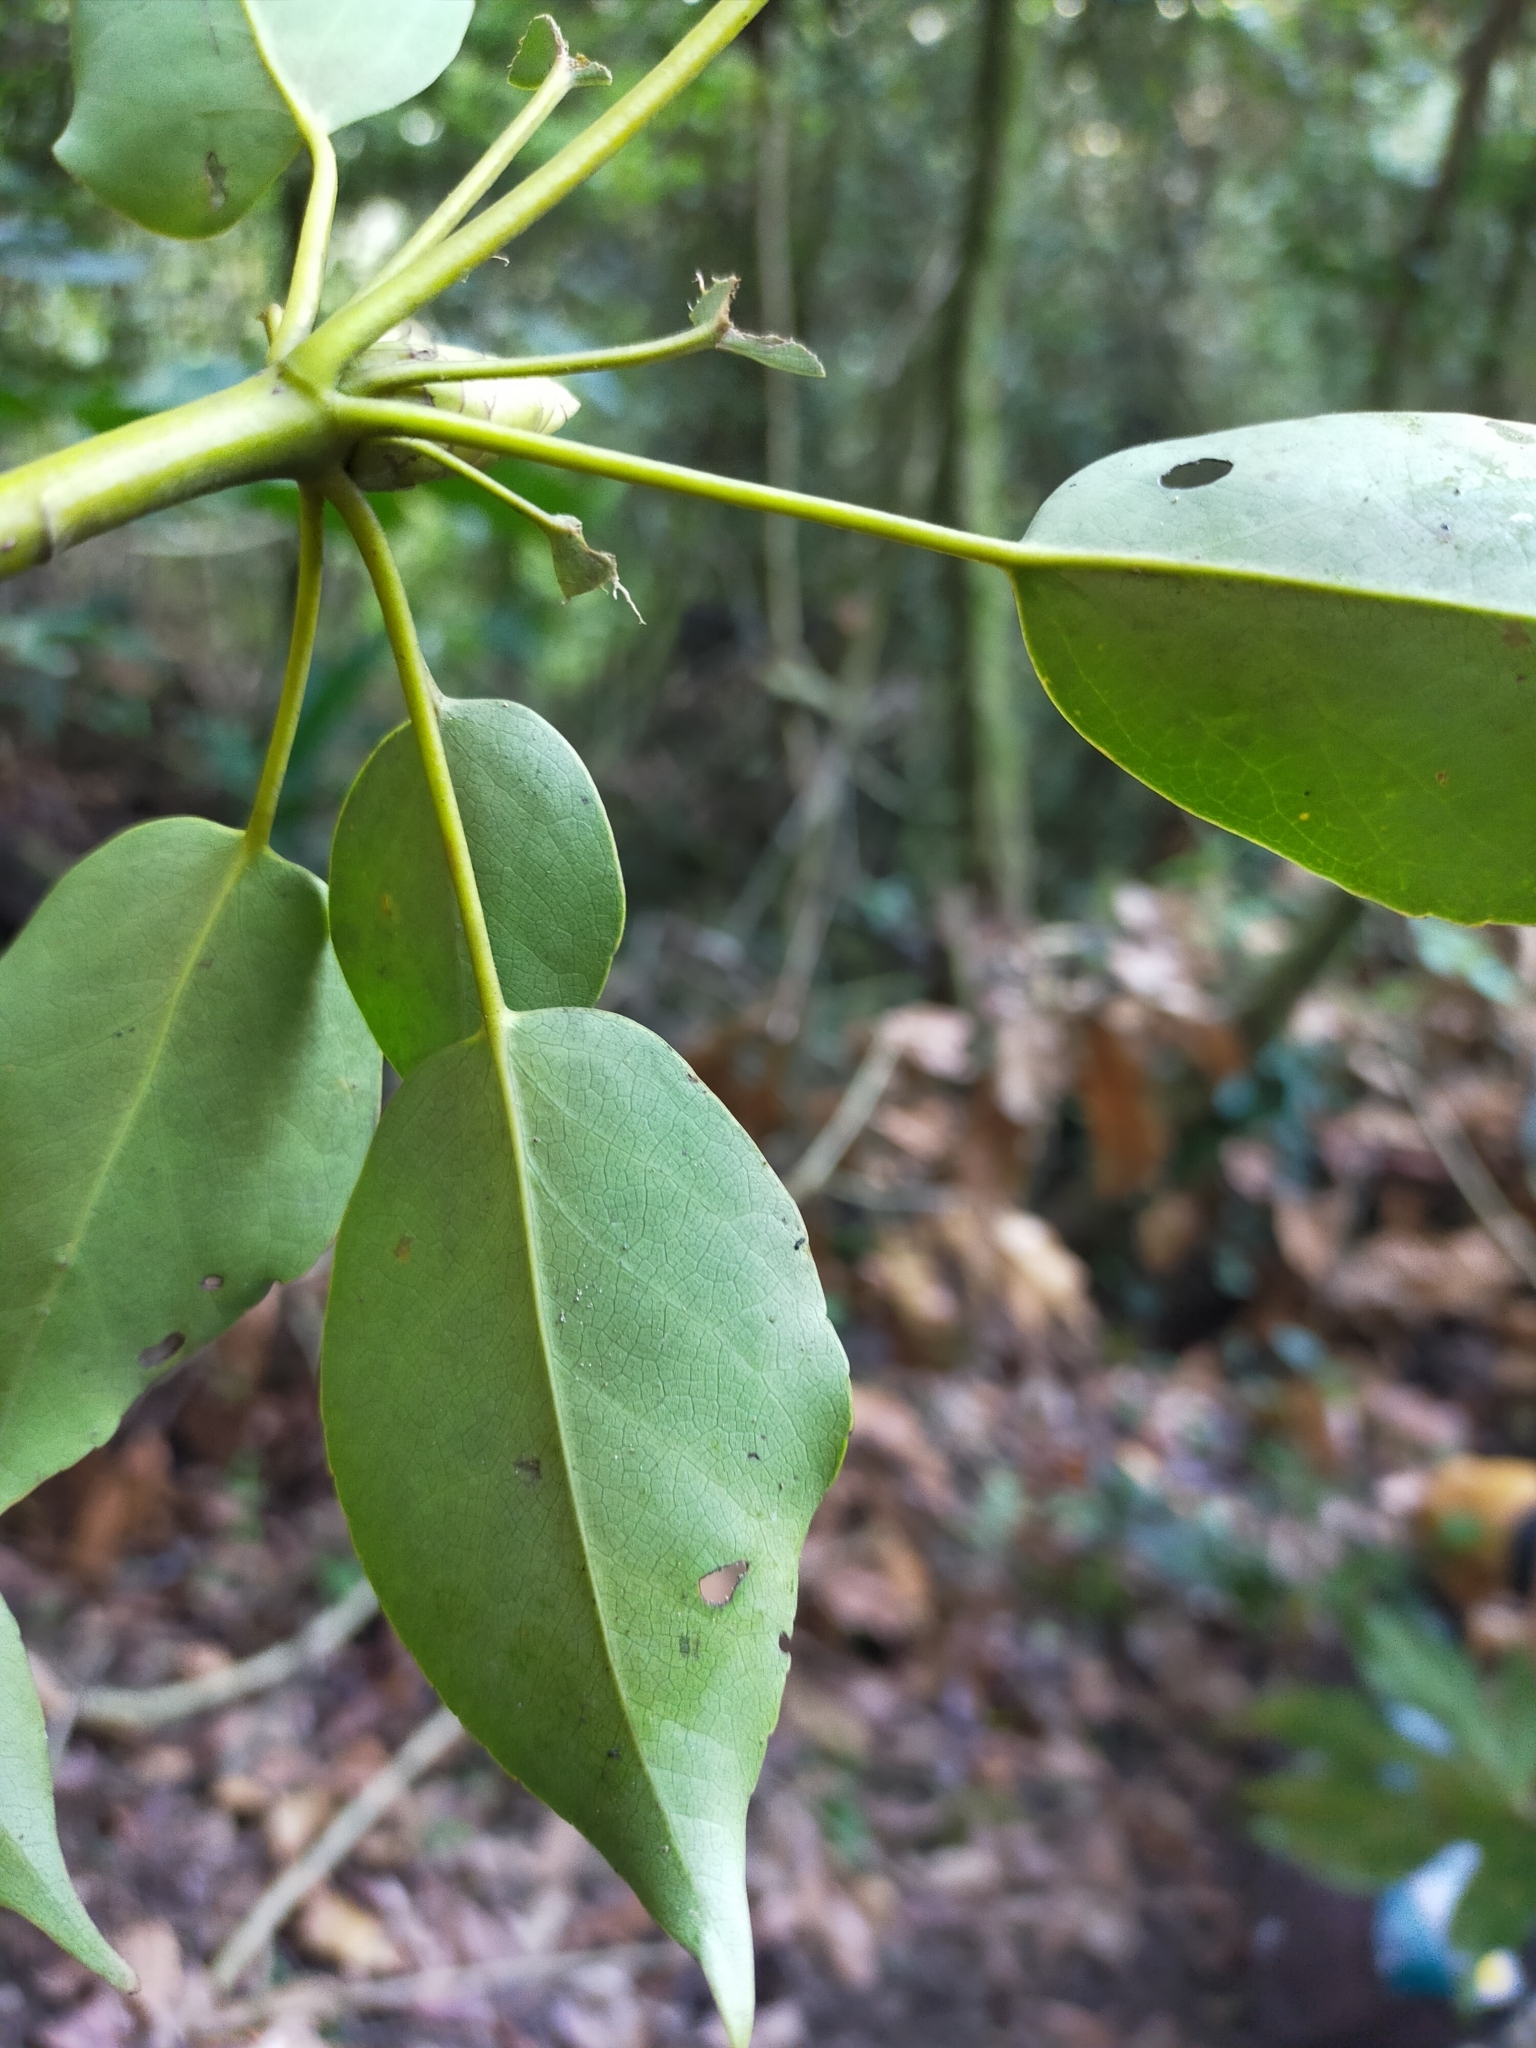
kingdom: Plantae
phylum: Tracheophyta
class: Magnoliopsida
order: Trochodendrales
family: Trochodendraceae
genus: Trochodendron
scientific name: Trochodendron aralioides
